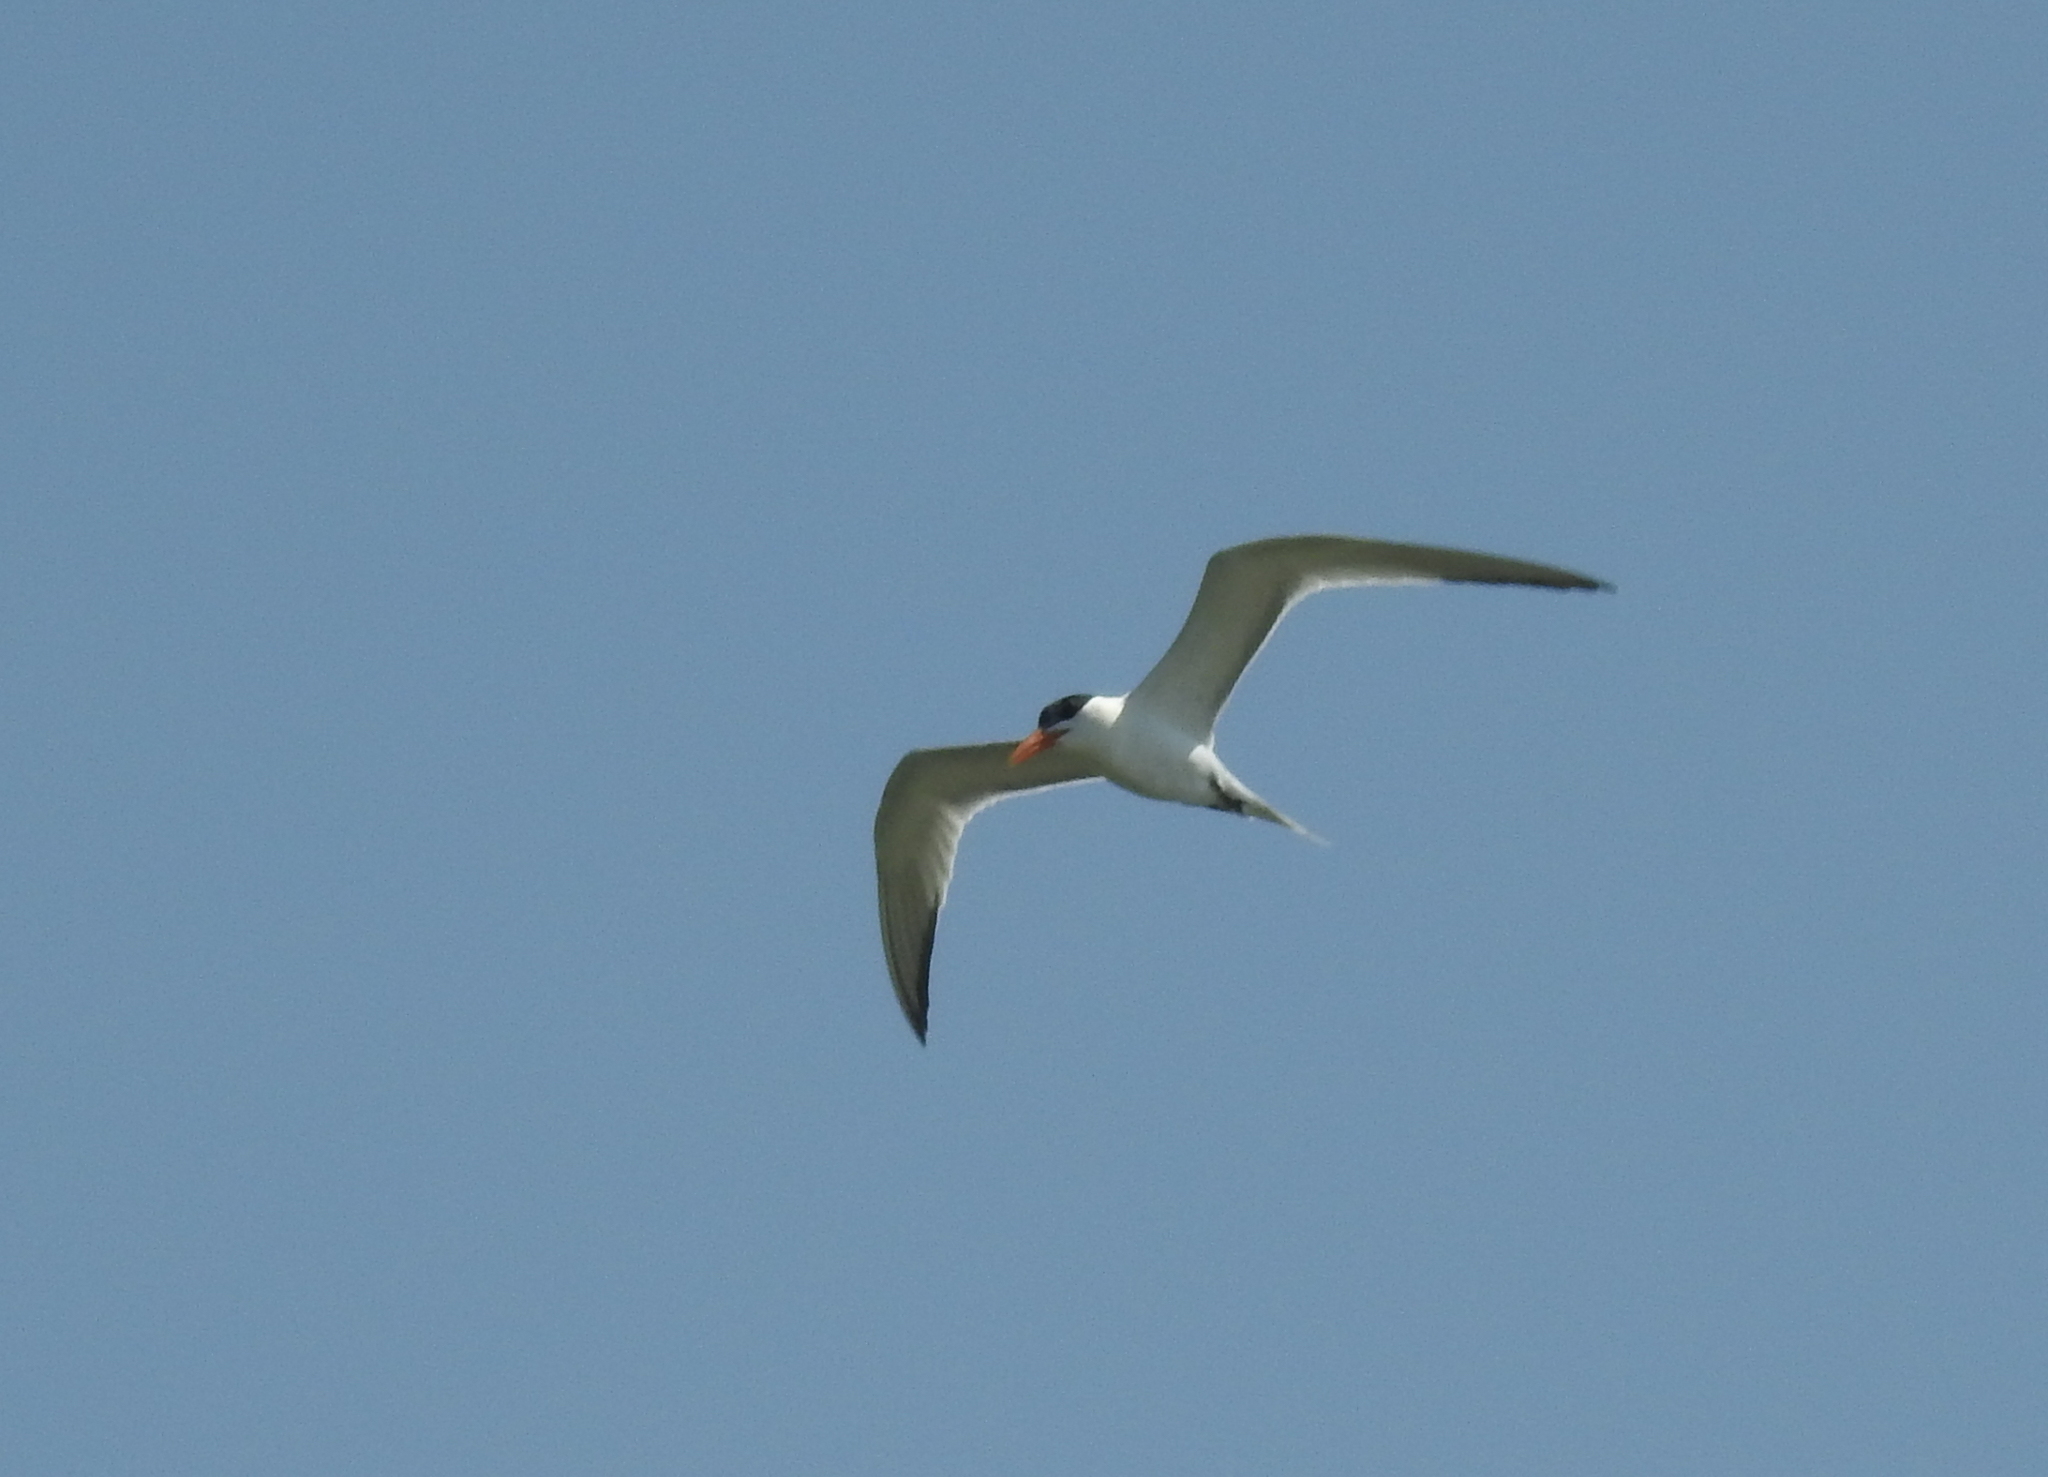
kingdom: Animalia
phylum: Chordata
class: Aves
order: Charadriiformes
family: Laridae
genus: Thalasseus
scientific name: Thalasseus maximus
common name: Royal tern
